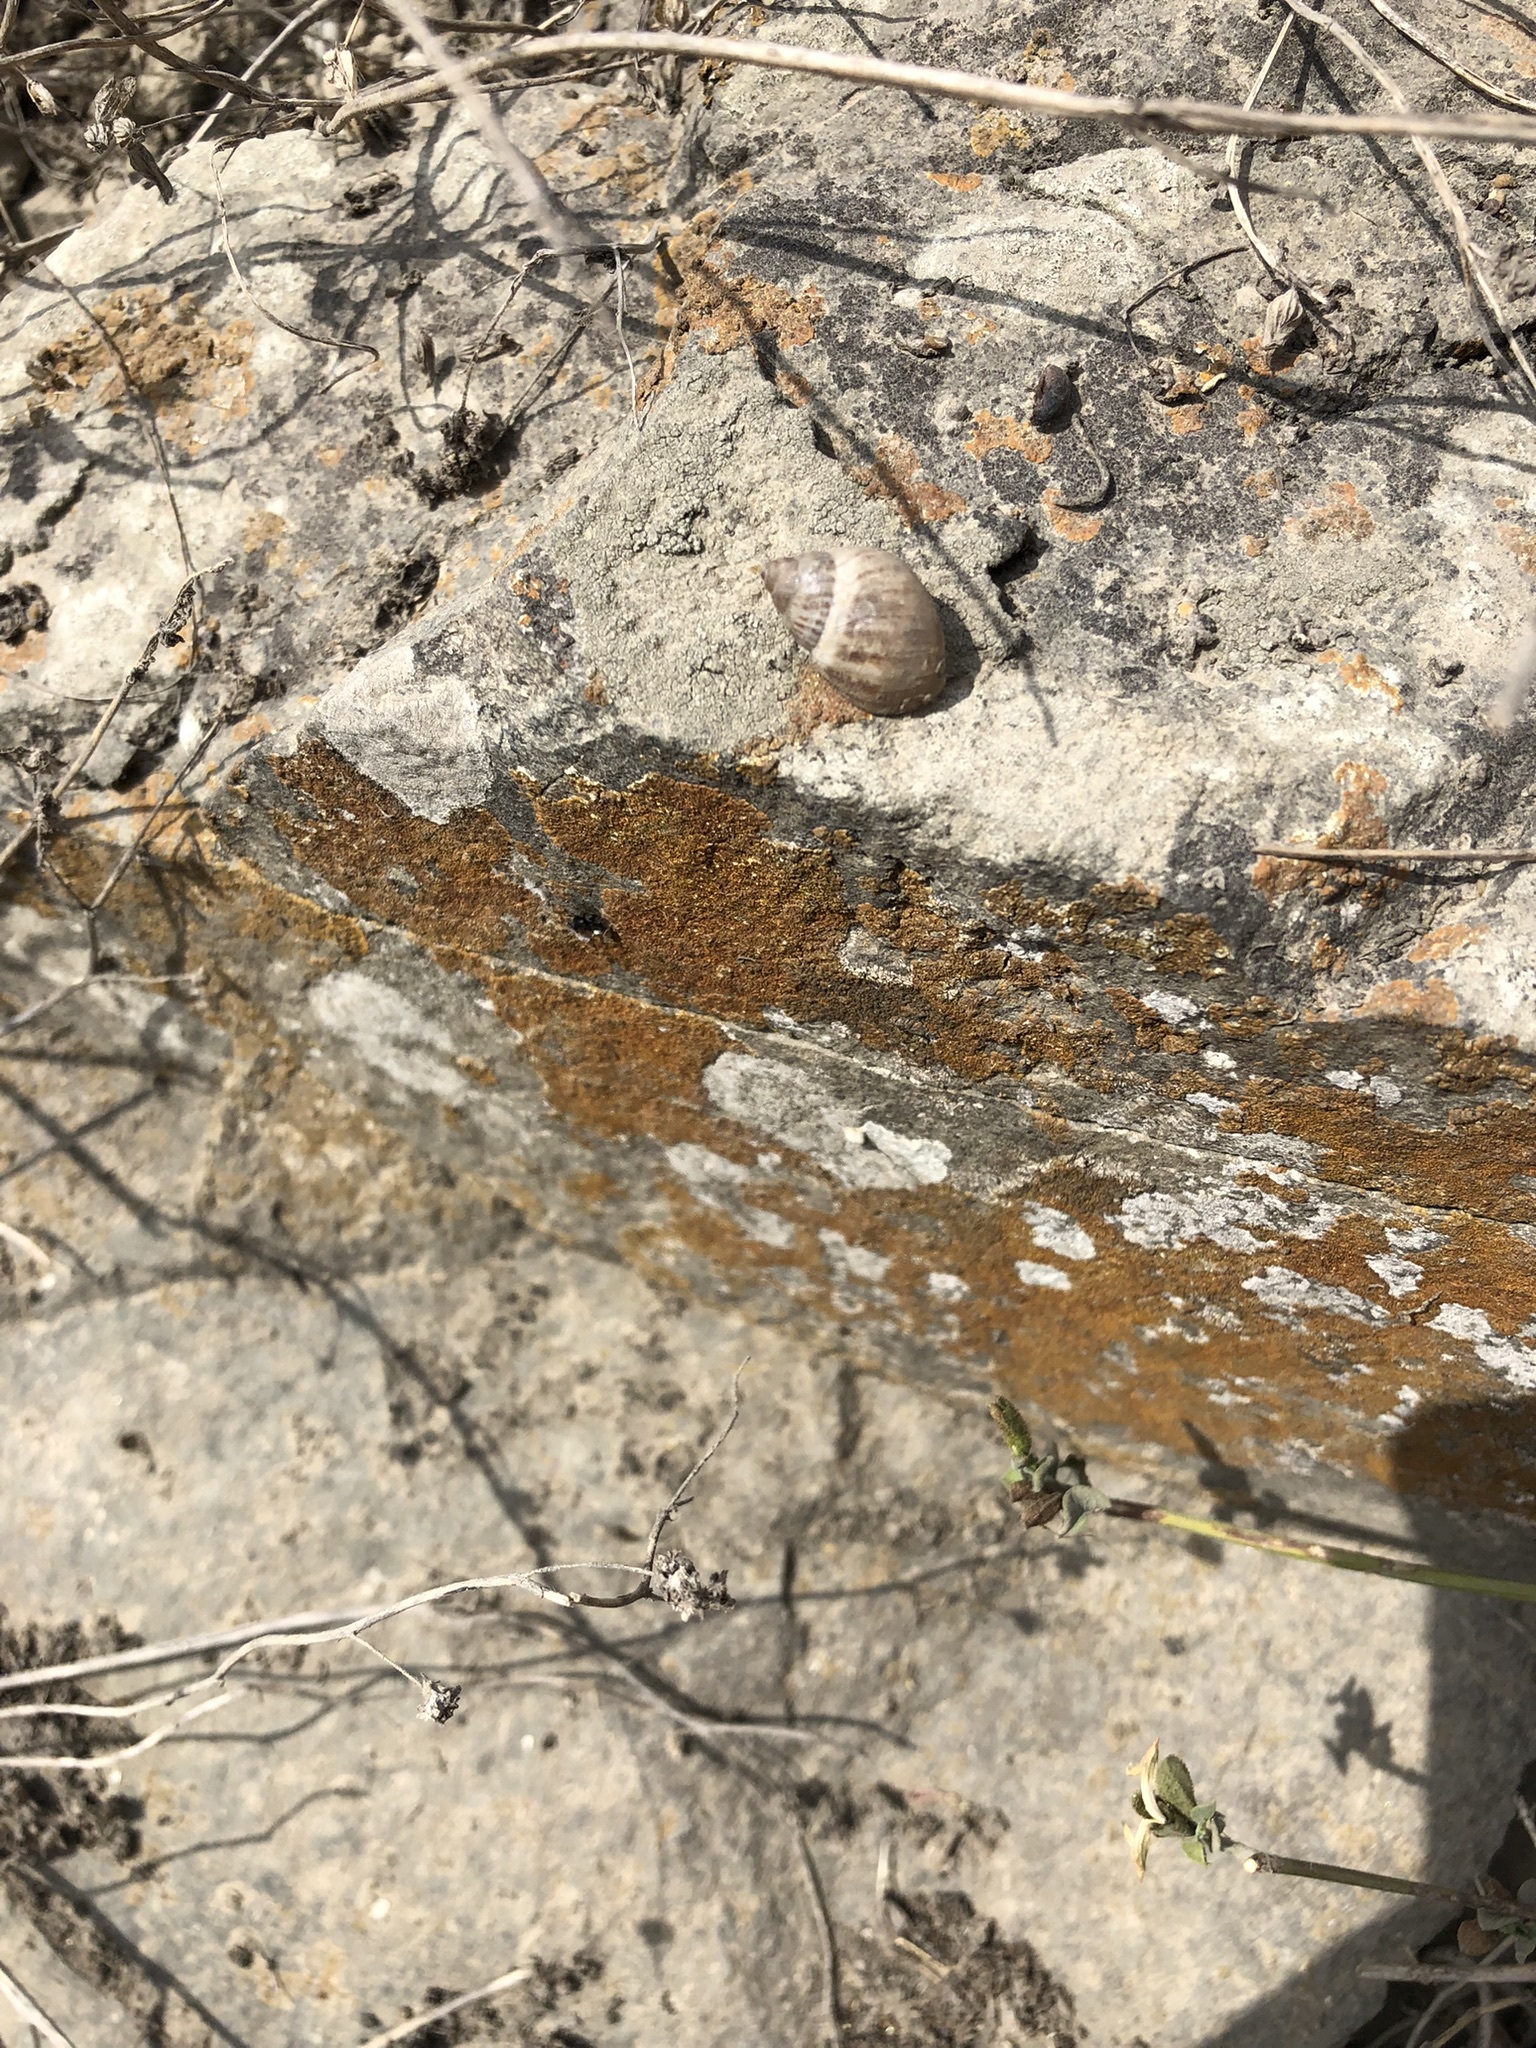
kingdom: Animalia
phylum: Mollusca
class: Gastropoda
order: Stylommatophora
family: Bulimulidae
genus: Bostryx
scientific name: Bostryx conspersus
